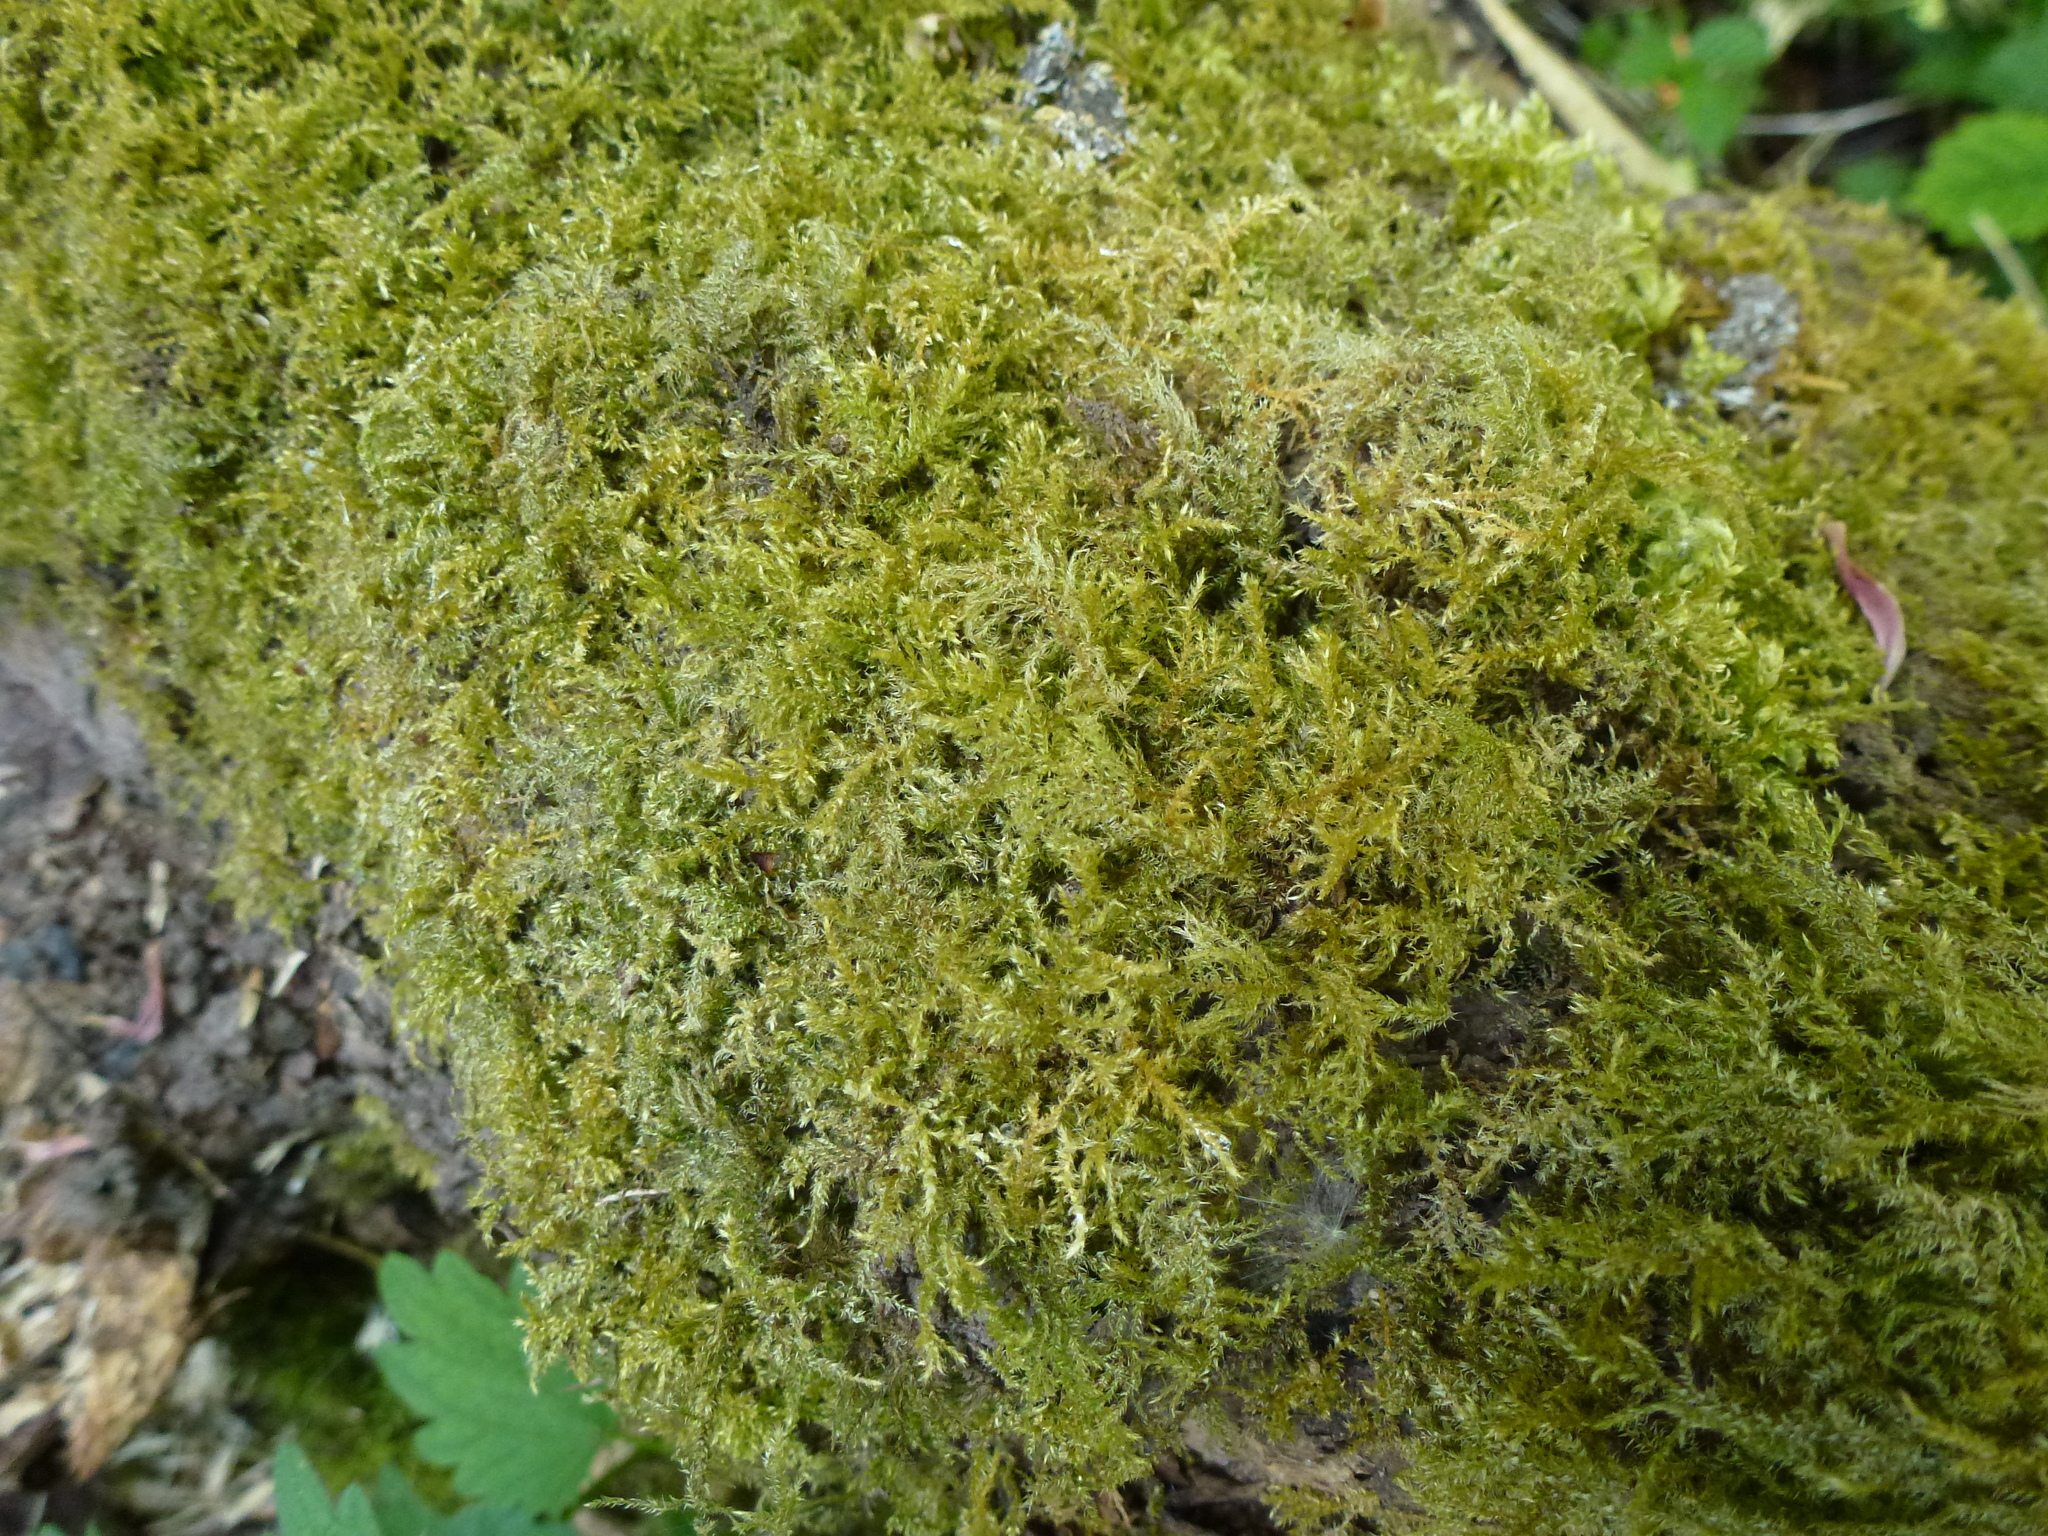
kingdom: Plantae
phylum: Bryophyta
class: Bryopsida
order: Hypnales
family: Brachytheciaceae
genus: Kindbergia
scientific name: Kindbergia praelonga
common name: Slender beaked moss
